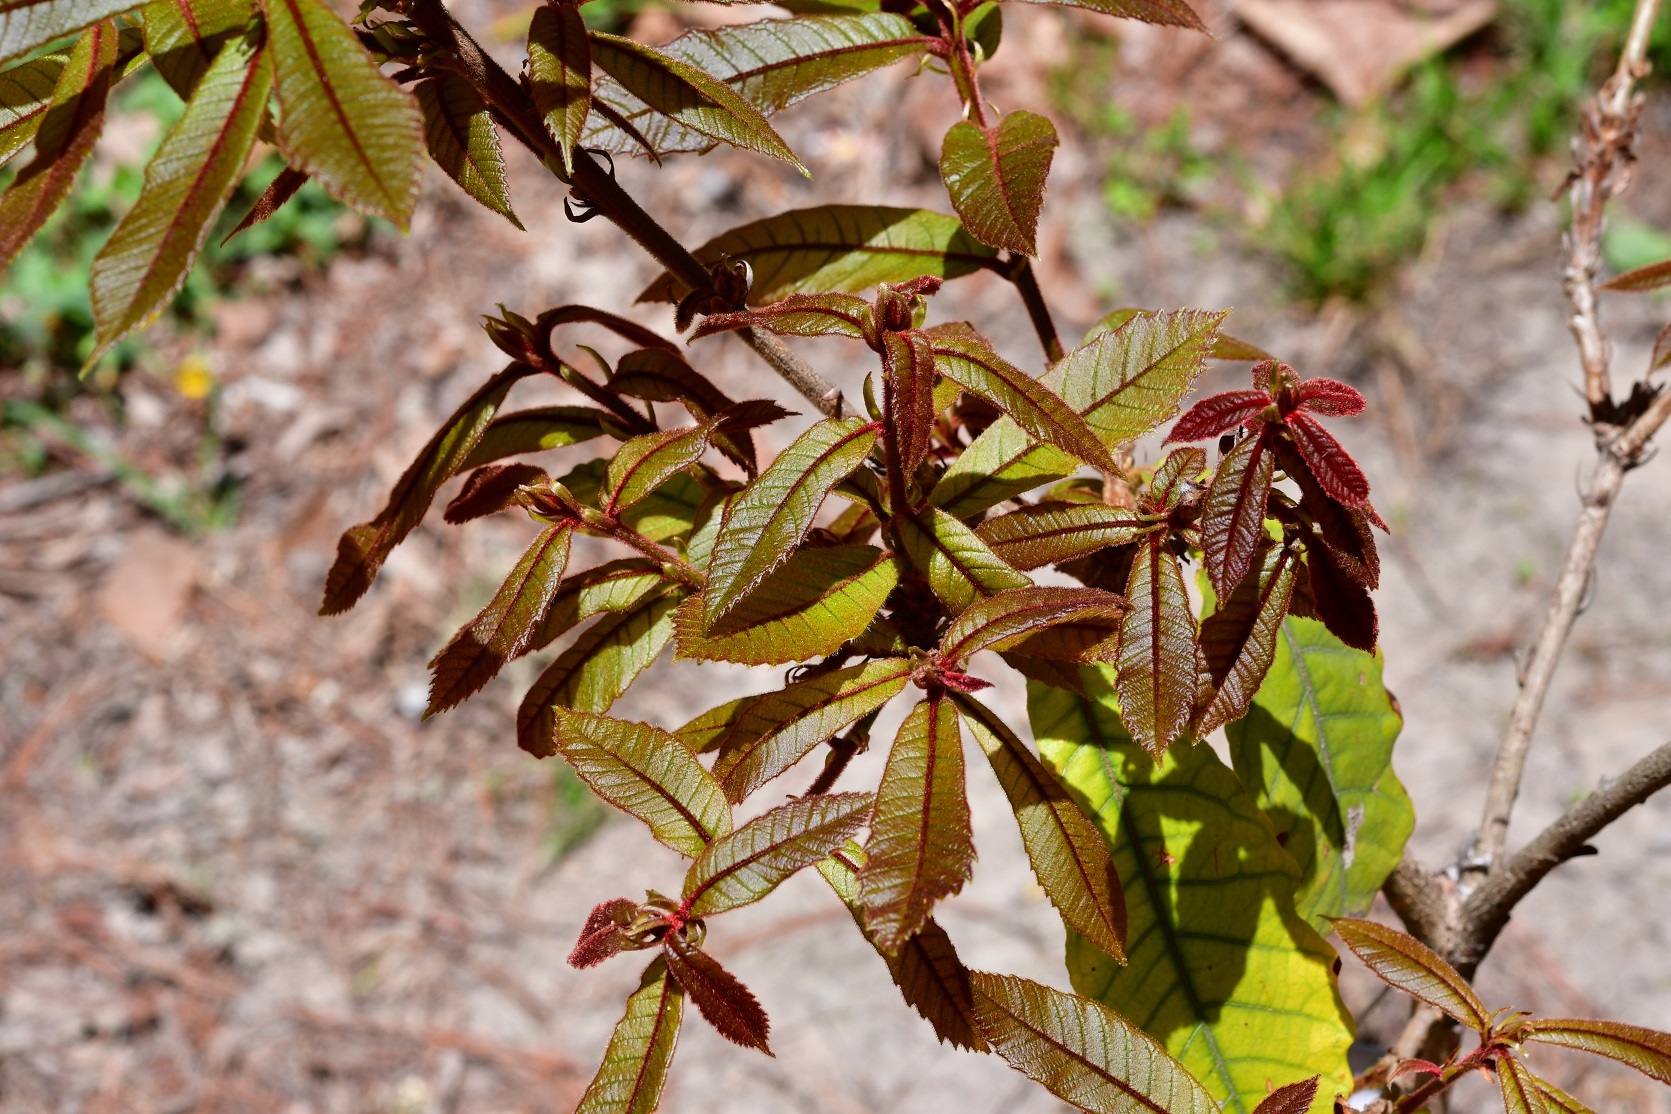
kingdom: Plantae
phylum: Tracheophyta
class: Magnoliopsida
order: Fagales
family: Fagaceae
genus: Quercus
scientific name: Quercus insignis
